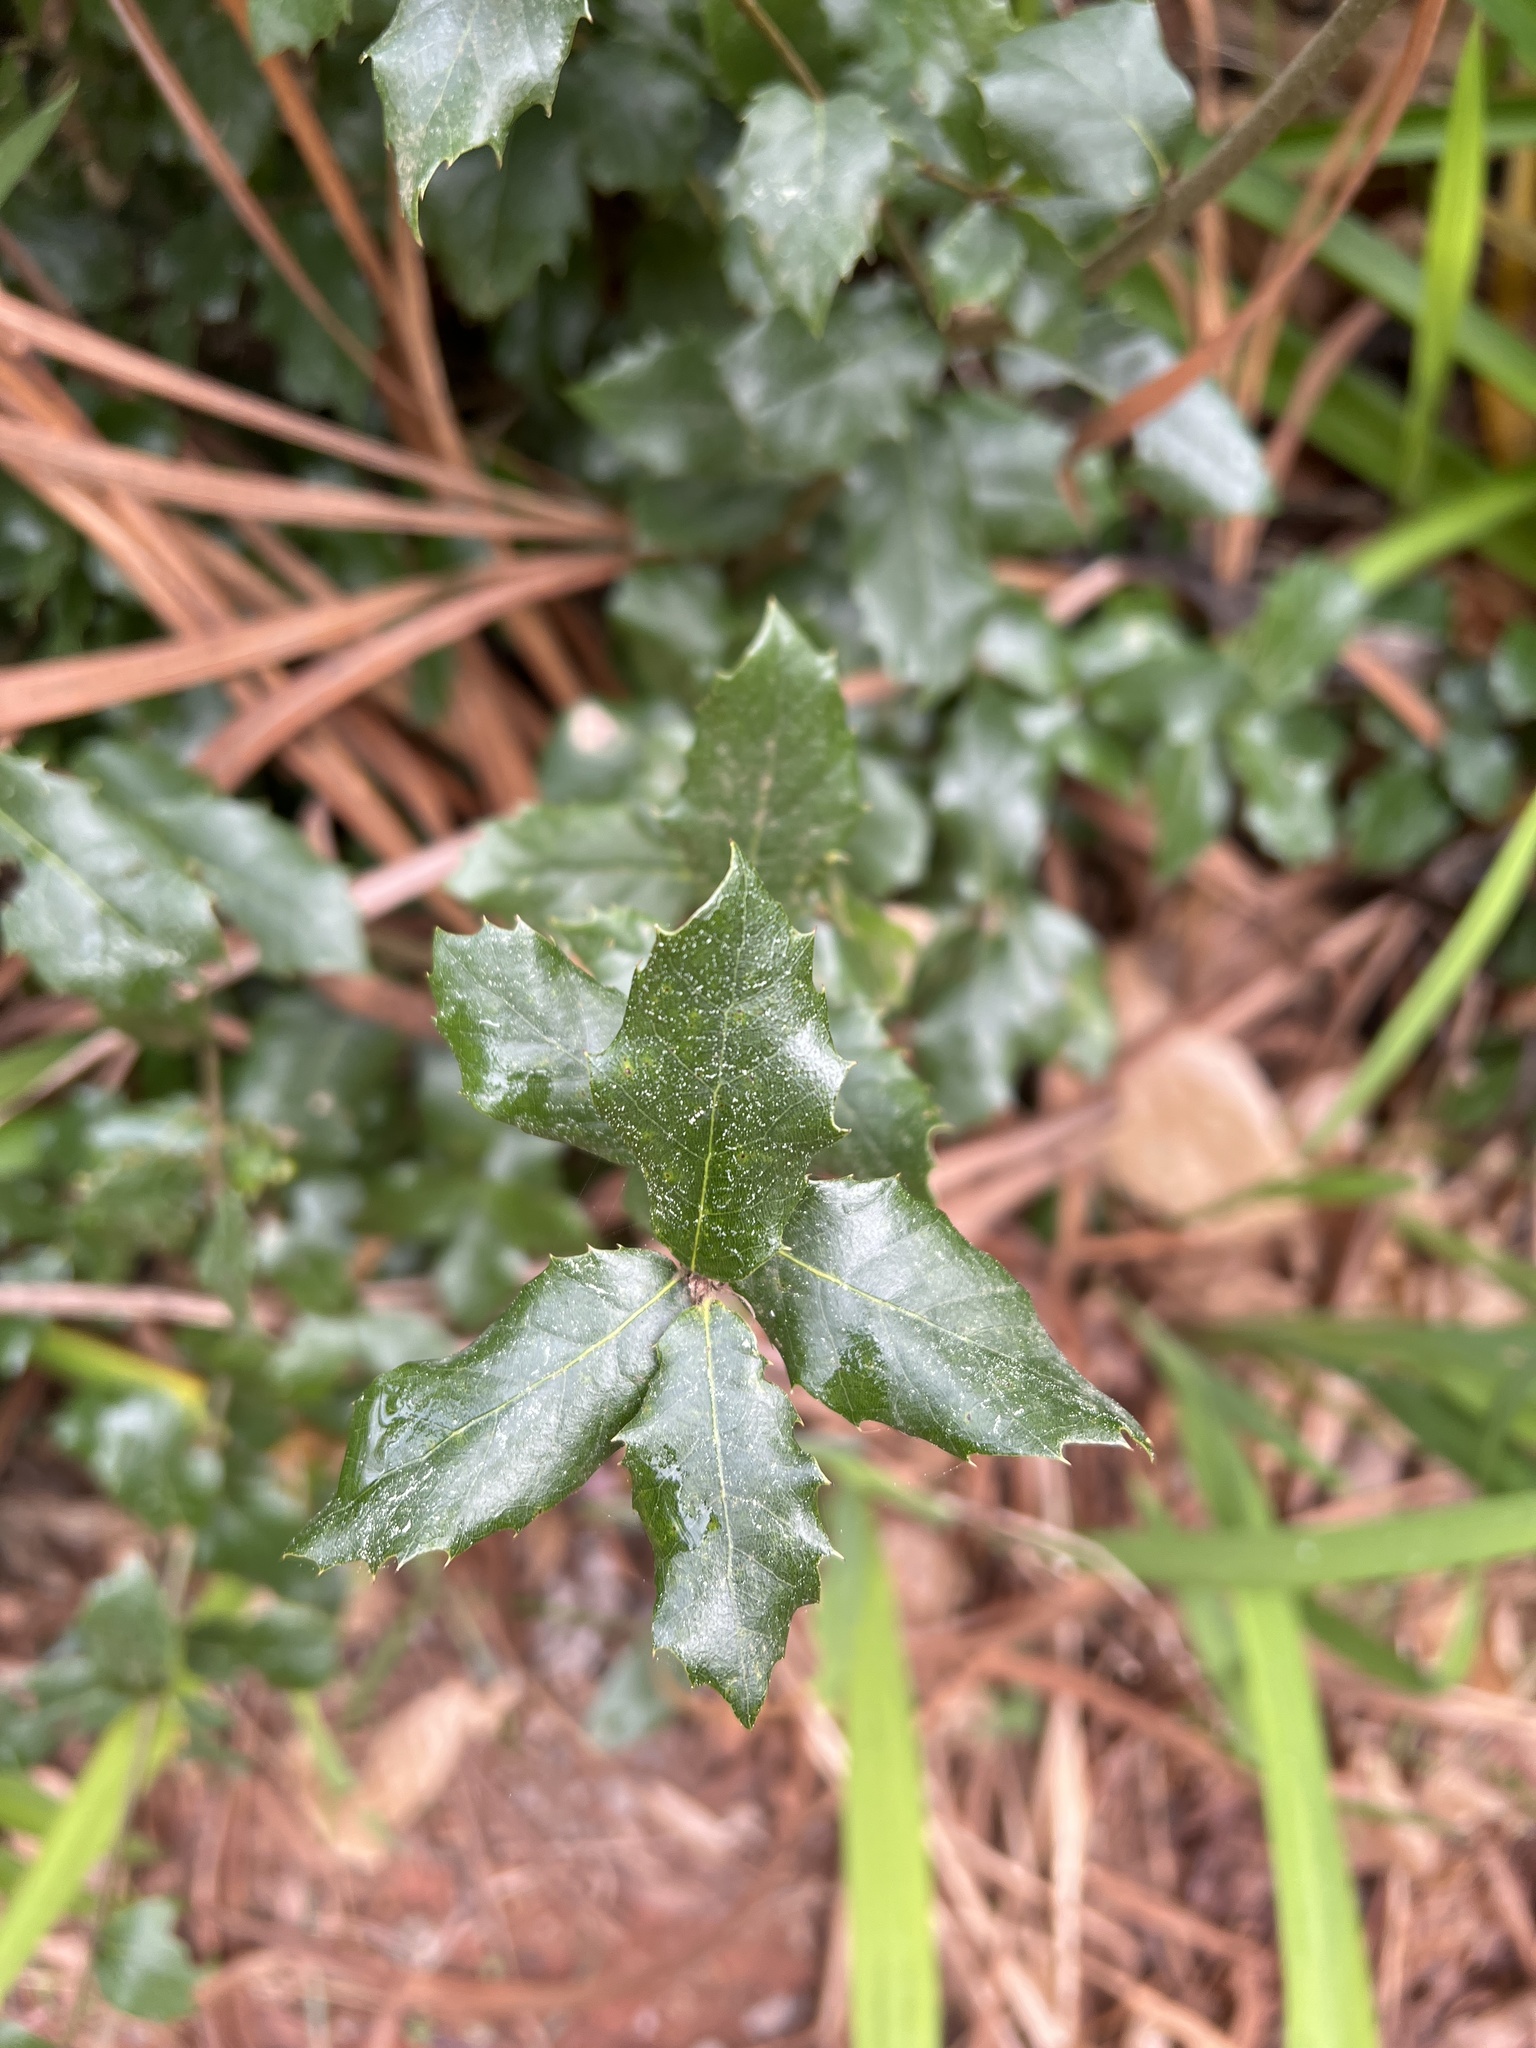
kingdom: Plantae
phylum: Tracheophyta
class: Magnoliopsida
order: Fagales
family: Fagaceae
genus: Quercus
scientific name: Quercus ilex
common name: Evergreen oak
